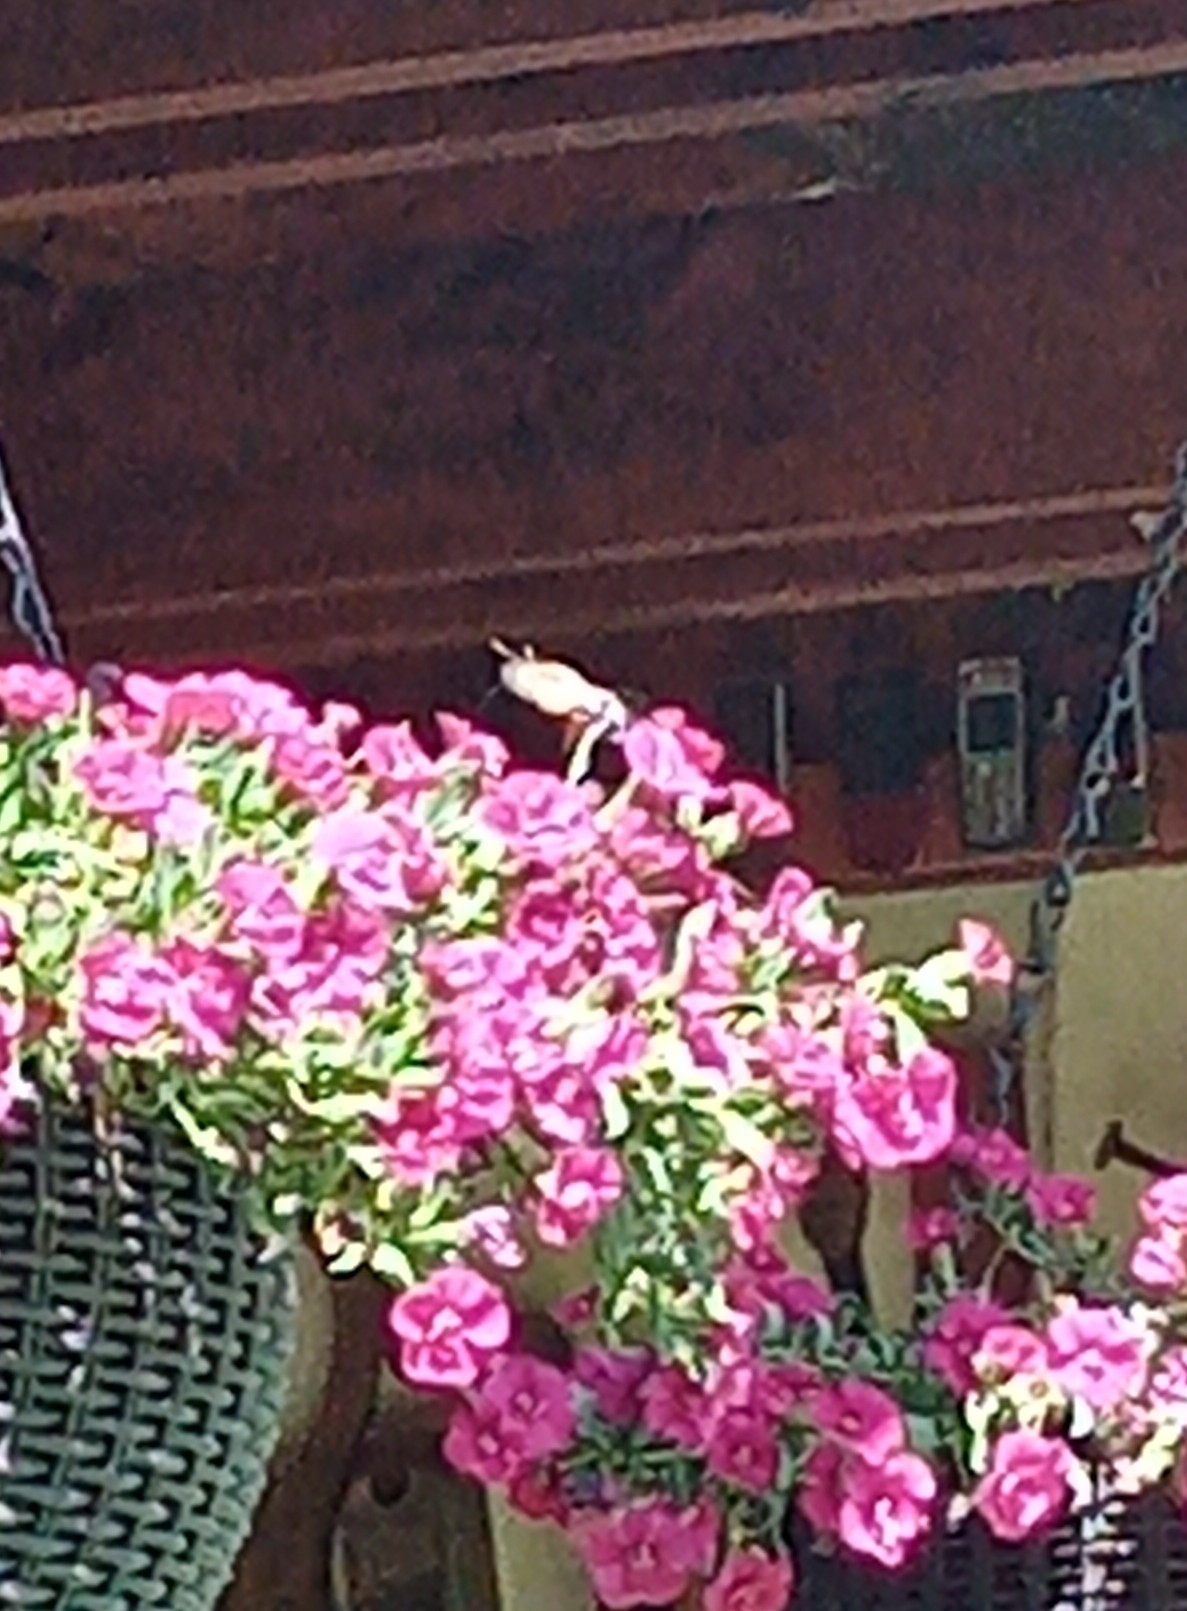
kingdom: Animalia
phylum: Arthropoda
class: Insecta
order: Lepidoptera
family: Sphingidae
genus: Macroglossum
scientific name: Macroglossum stellatarum
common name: Humming-bird hawk-moth
